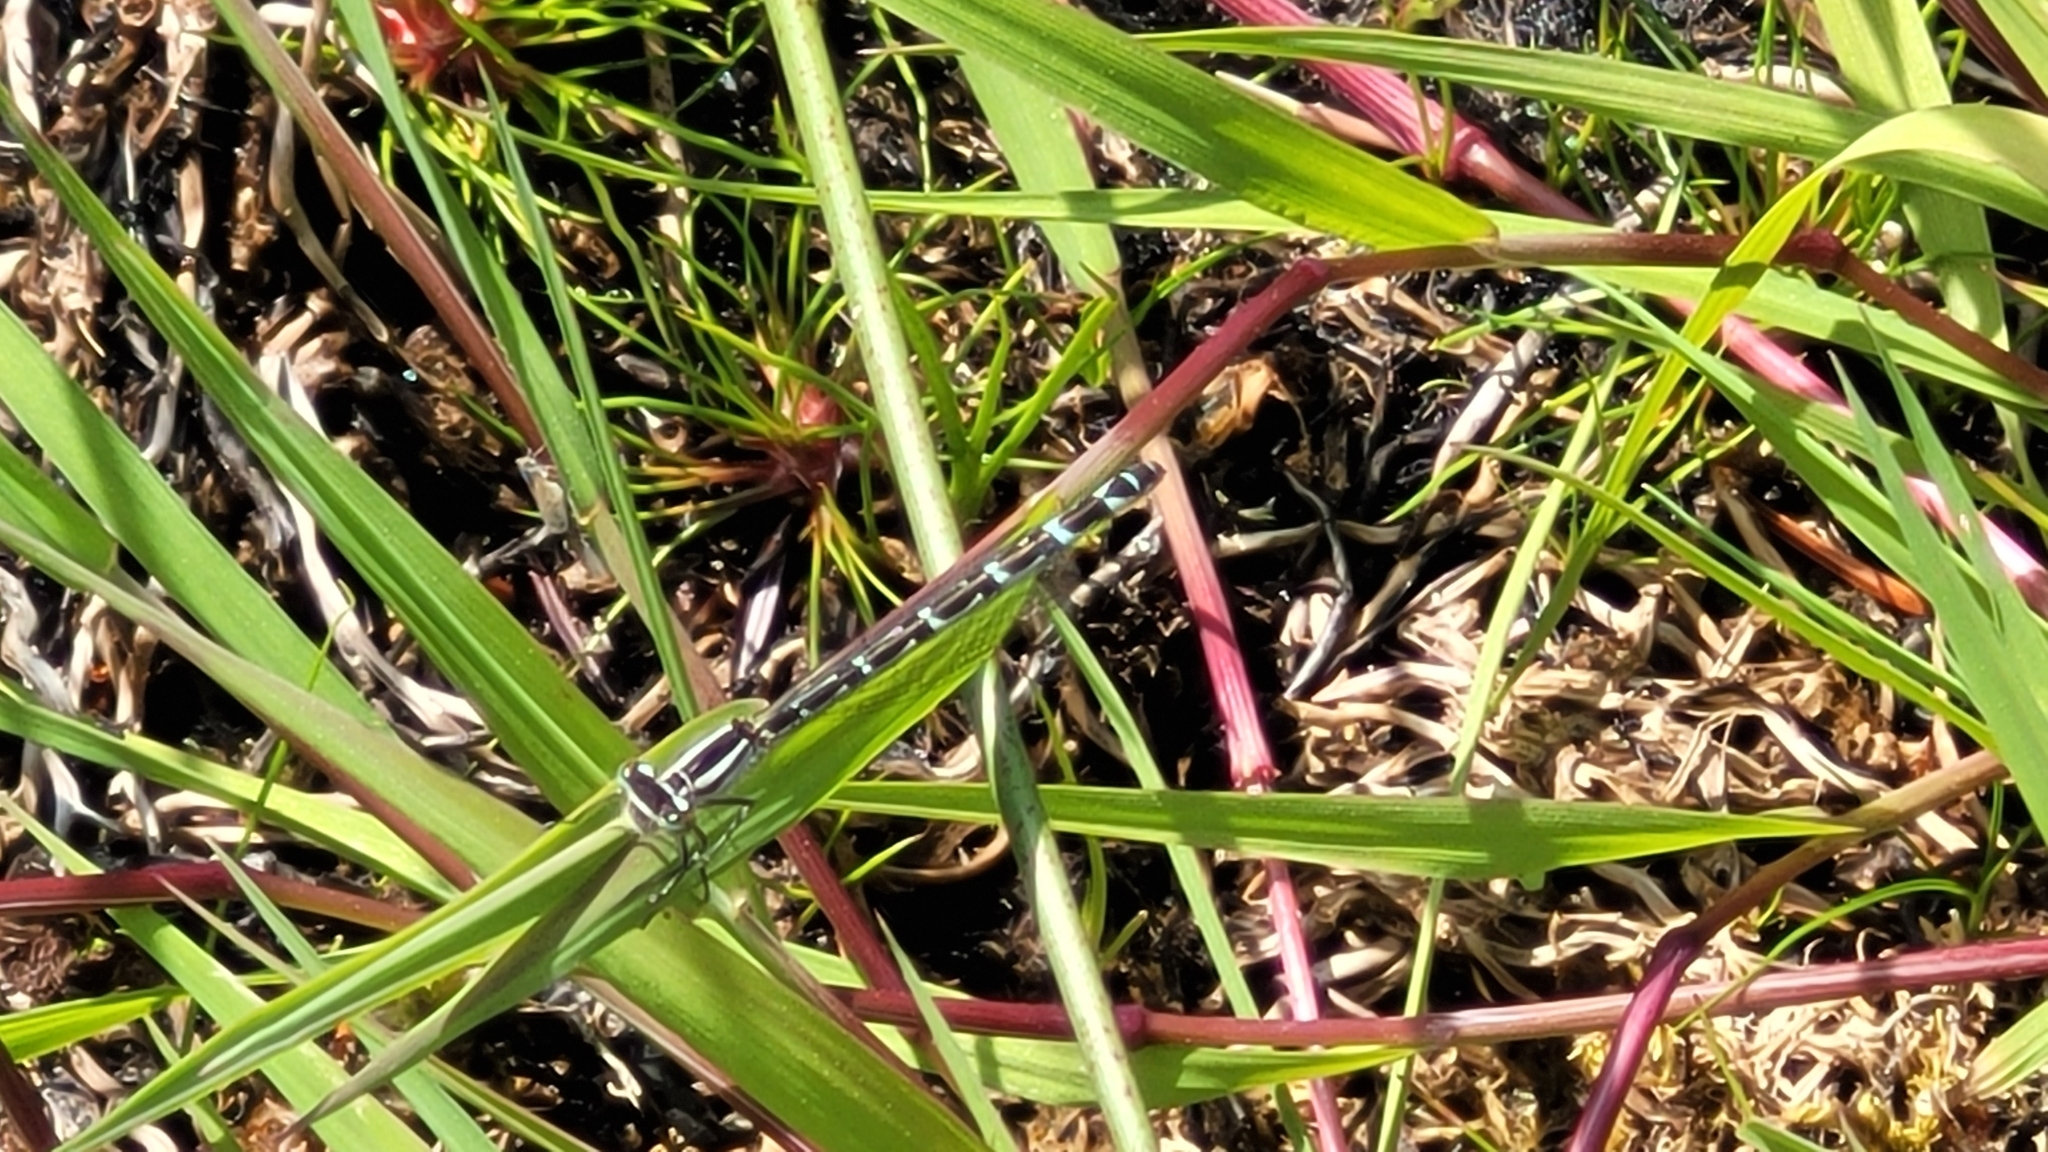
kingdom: Animalia
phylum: Arthropoda
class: Insecta
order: Odonata
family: Coenagrionidae
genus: Enallagma
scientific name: Enallagma cyathigerum
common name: Common blue damselfly
